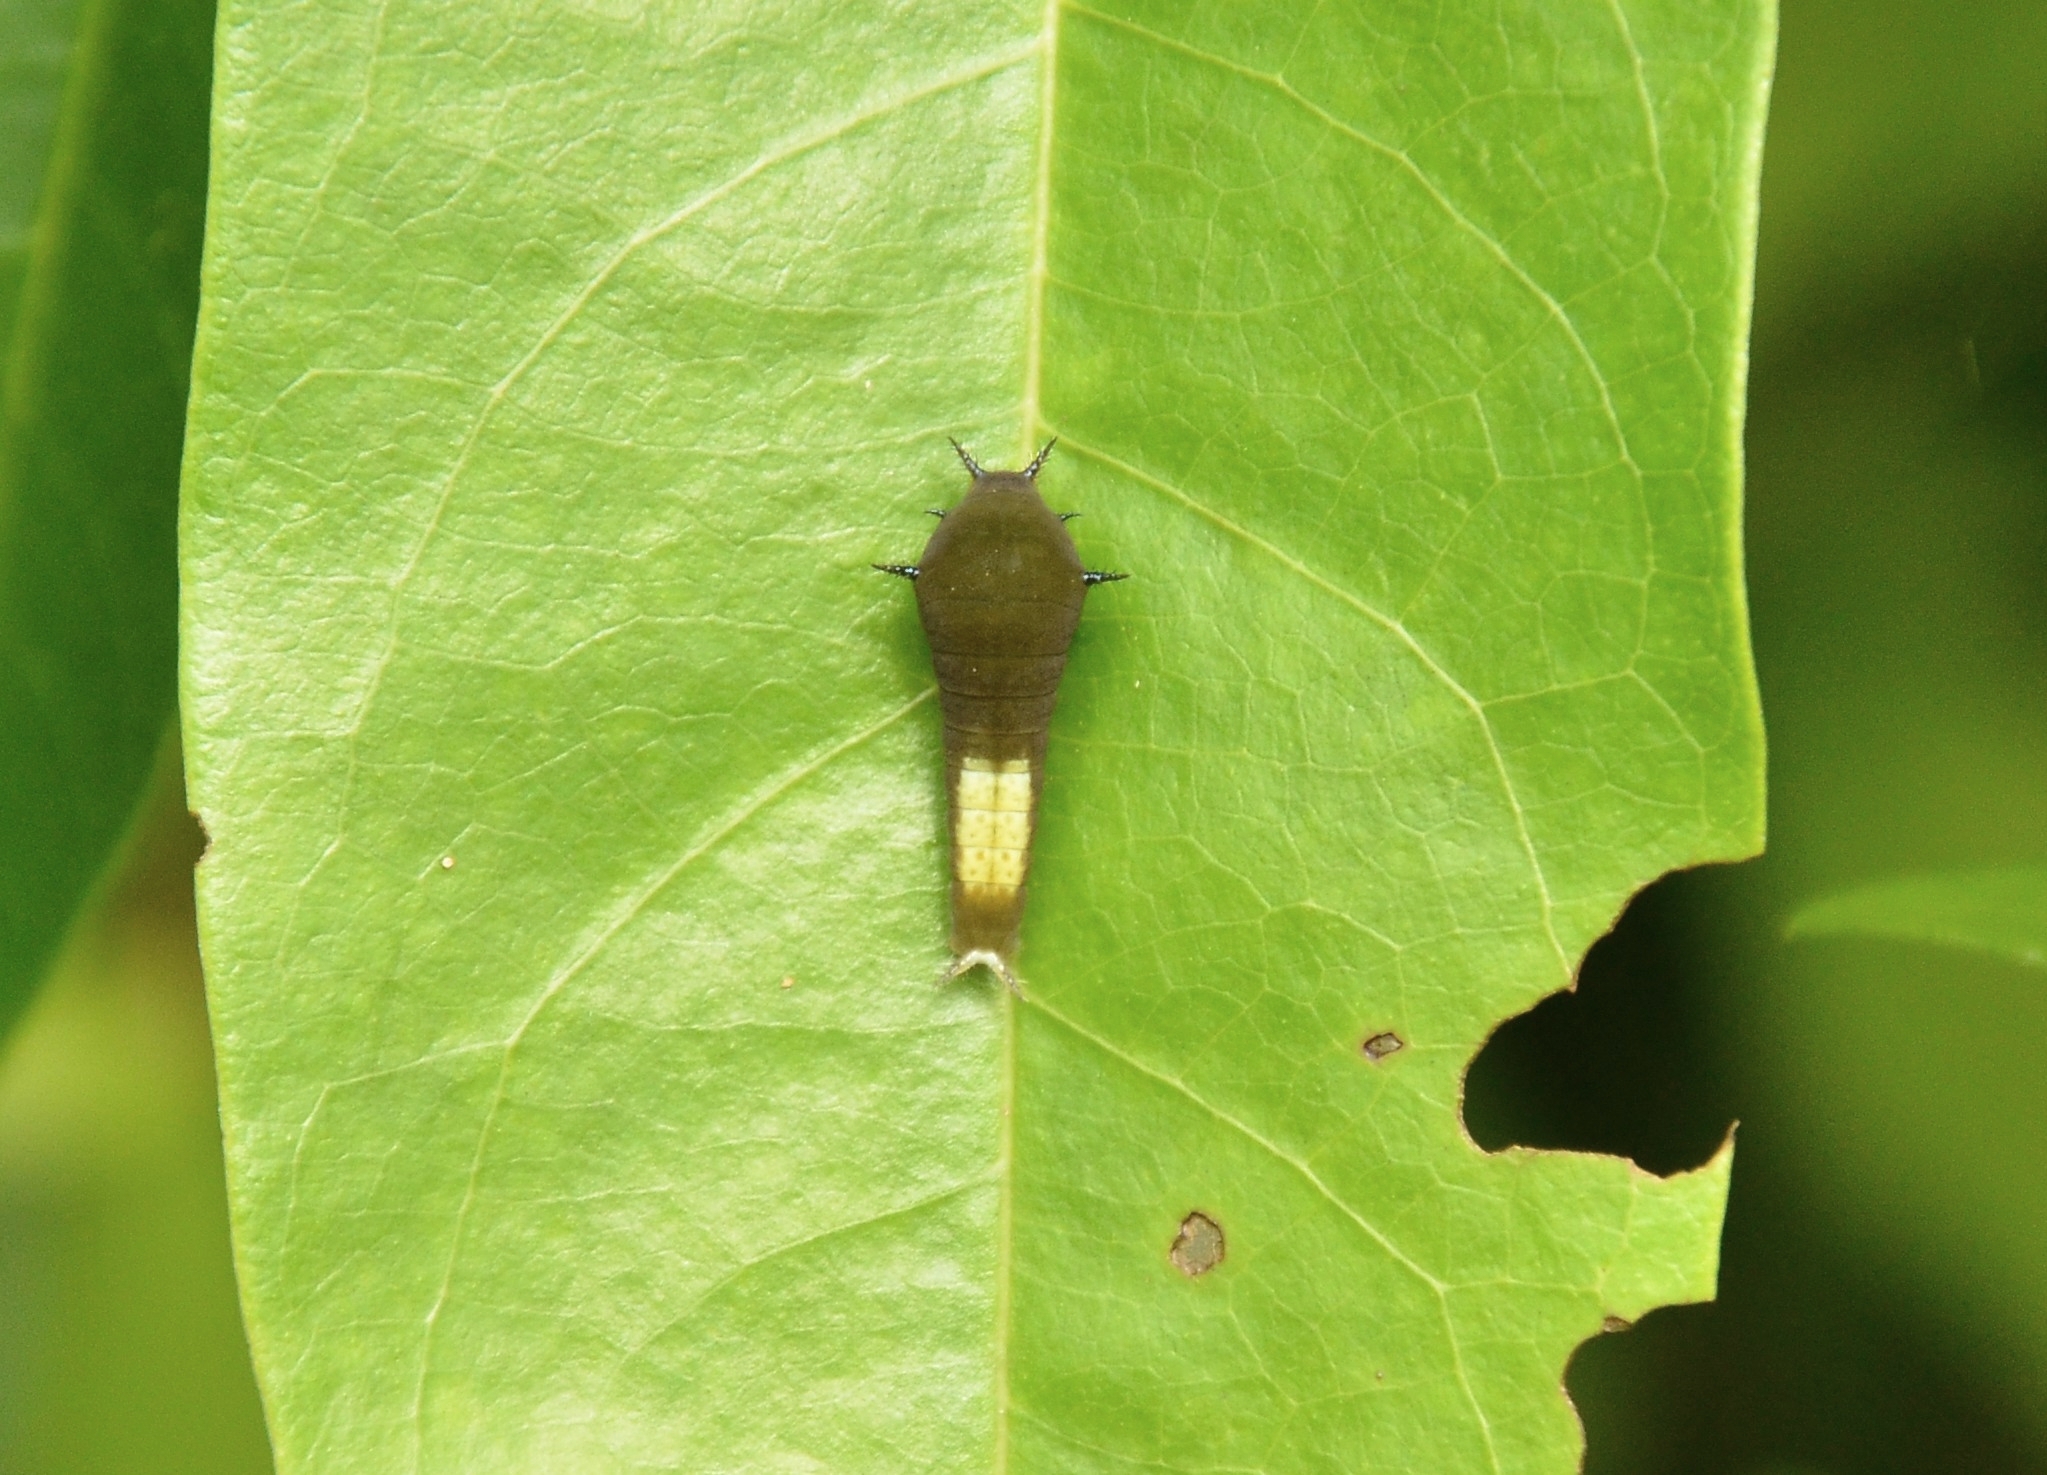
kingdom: Animalia
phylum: Arthropoda
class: Insecta
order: Lepidoptera
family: Papilionidae
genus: Graphium
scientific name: Graphium agamemnon
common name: Tailed jay
